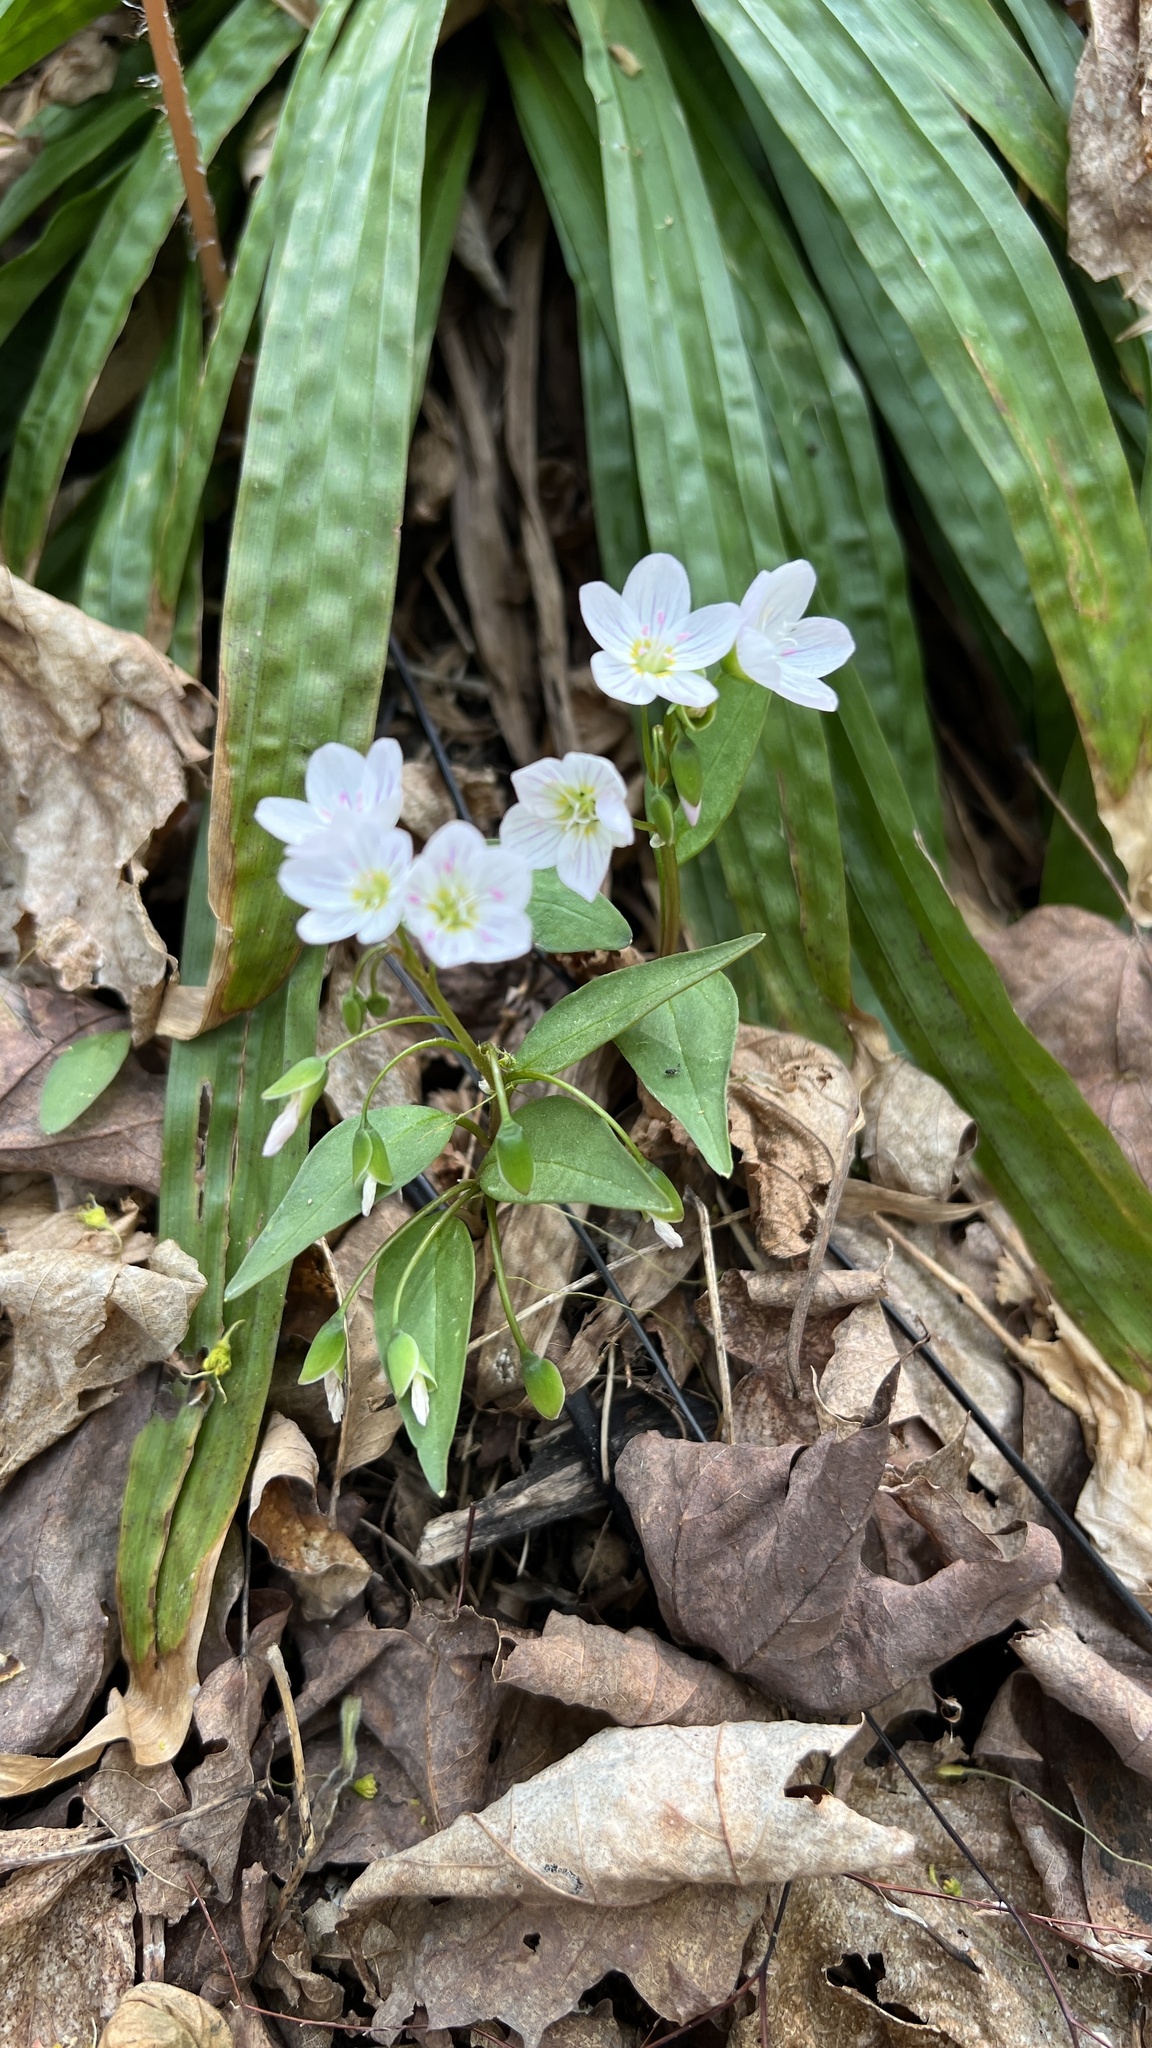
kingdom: Plantae
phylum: Tracheophyta
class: Magnoliopsida
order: Caryophyllales
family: Montiaceae
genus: Claytonia
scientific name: Claytonia caroliniana
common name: Carolina spring beauty
